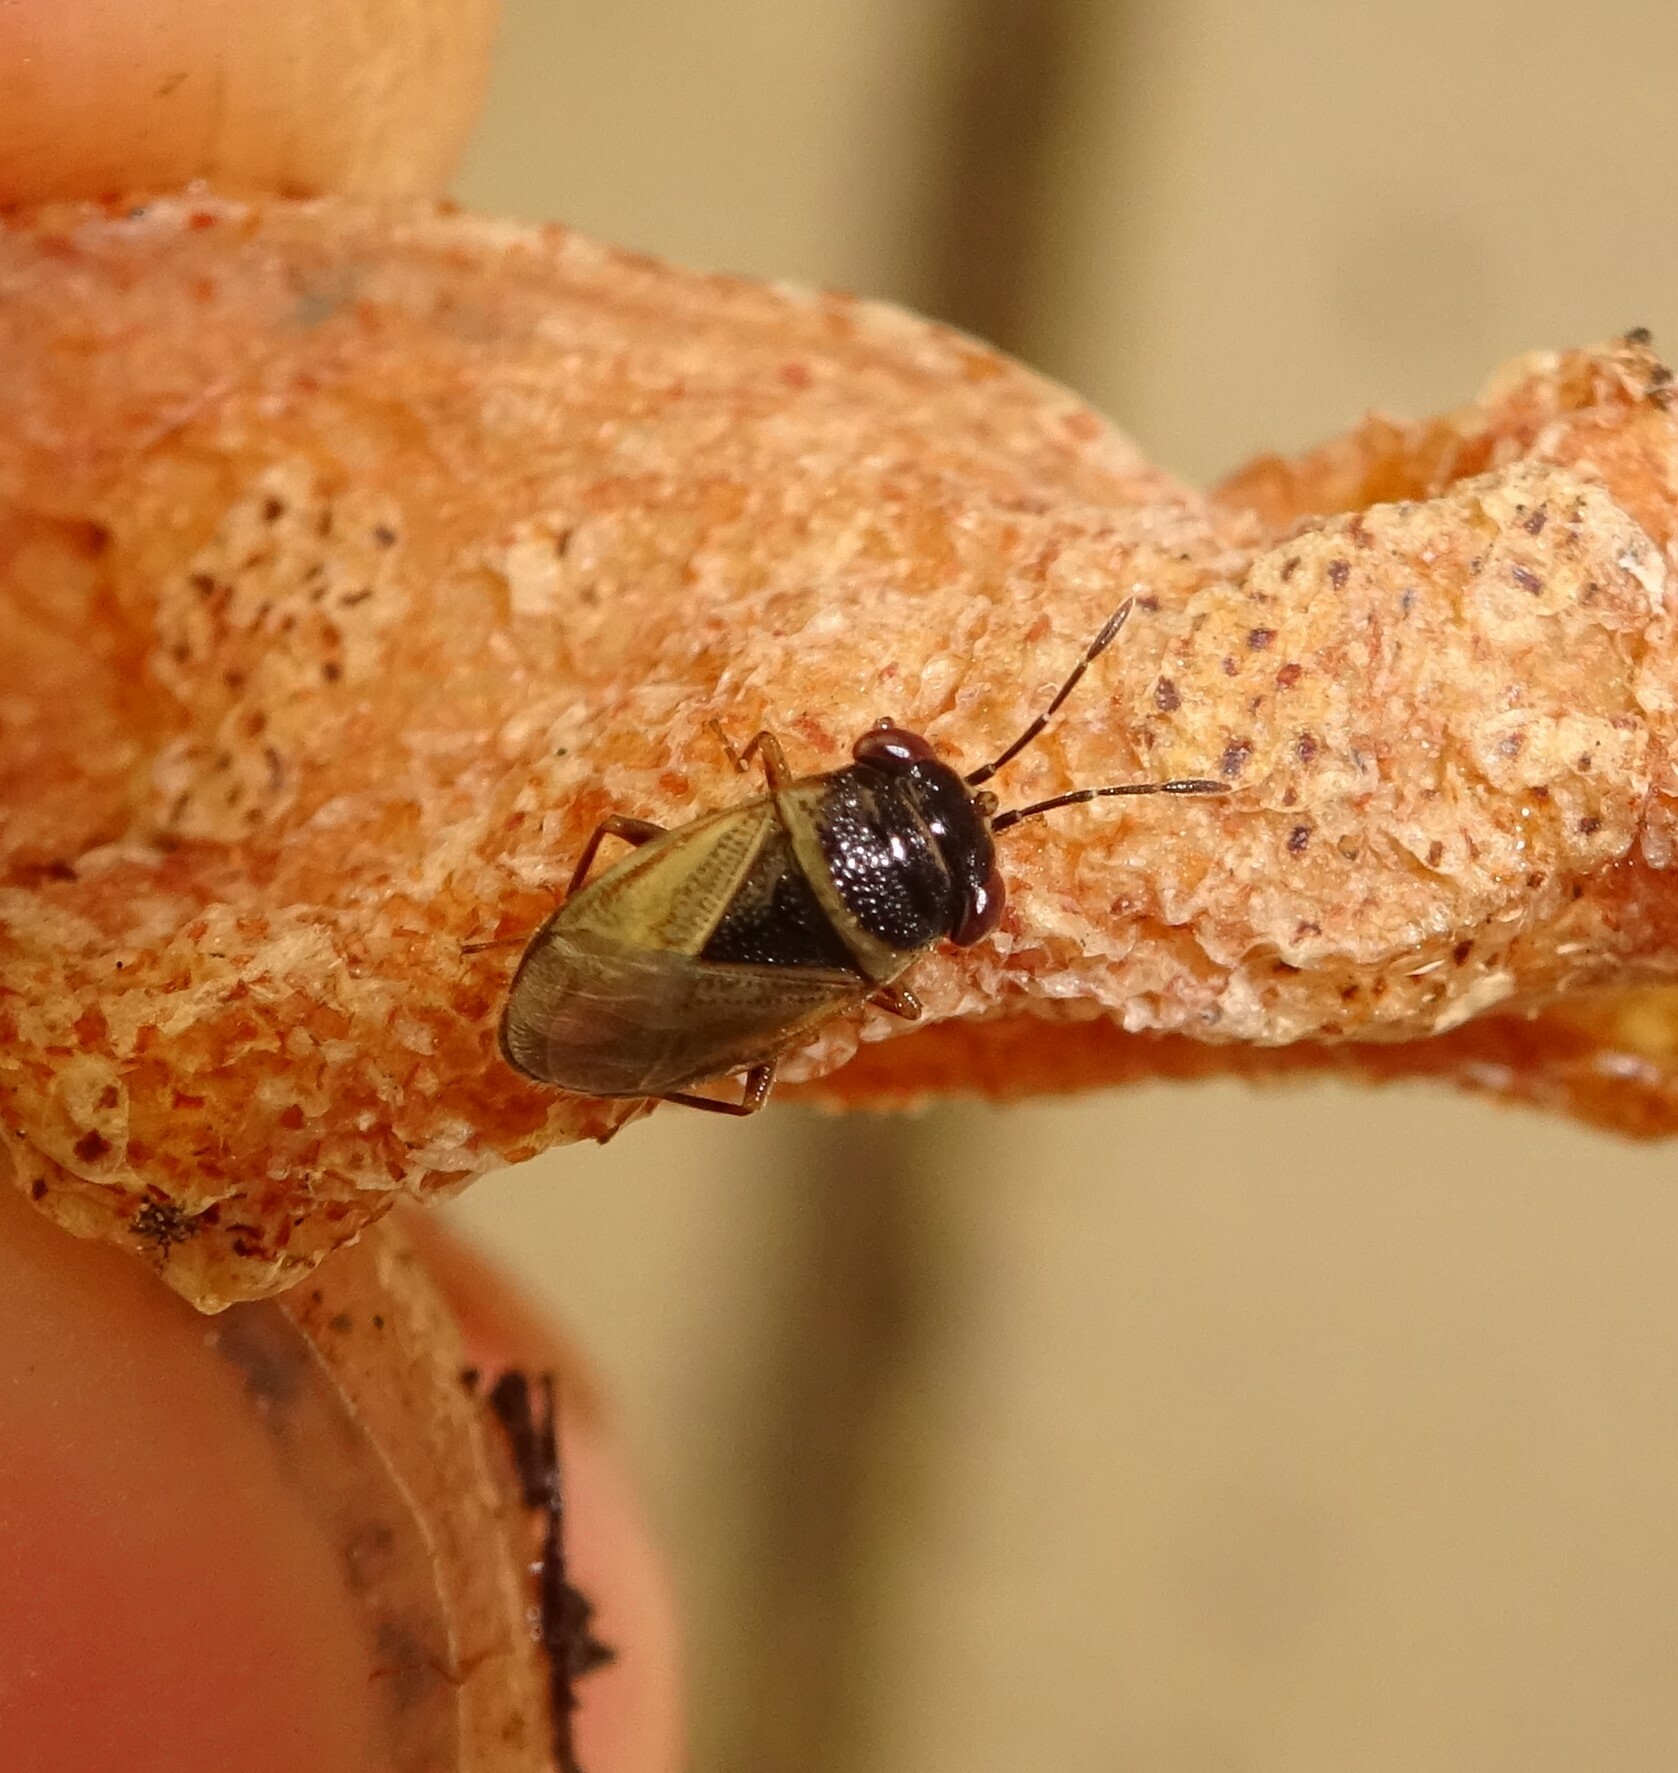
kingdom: Animalia
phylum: Arthropoda
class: Insecta
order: Hemiptera
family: Geocoridae
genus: Geocoris
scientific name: Geocoris megacephalus
